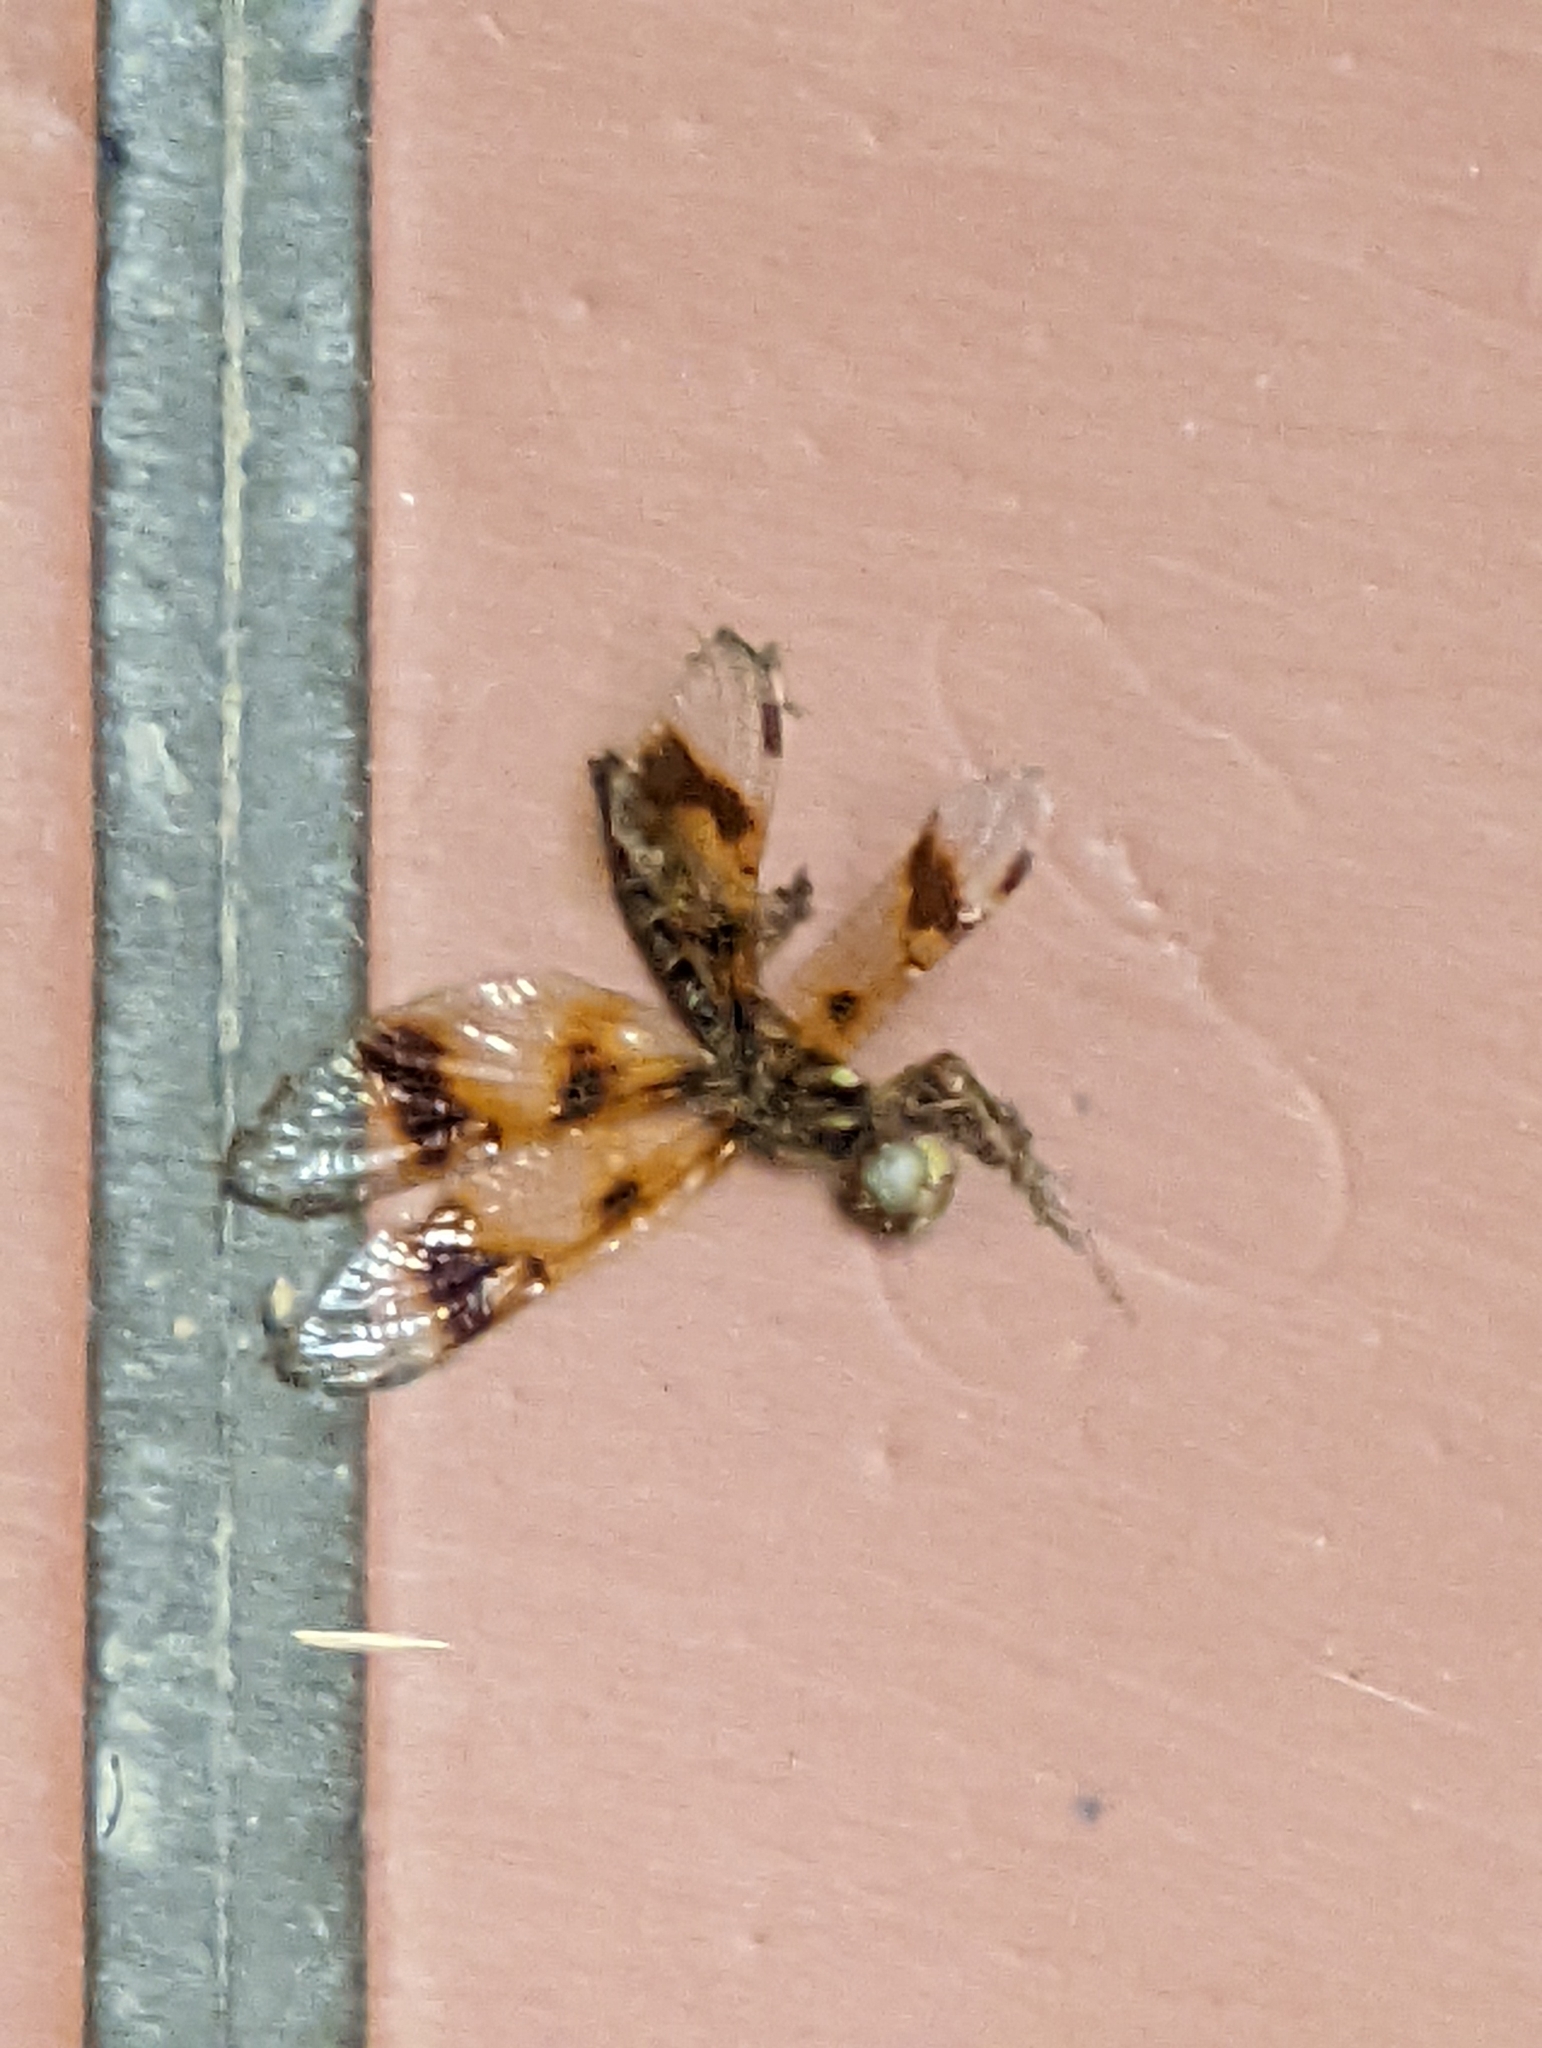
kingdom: Animalia
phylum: Arthropoda
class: Insecta
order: Odonata
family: Libellulidae
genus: Perithemis
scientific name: Perithemis tenera
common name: Eastern amberwing
